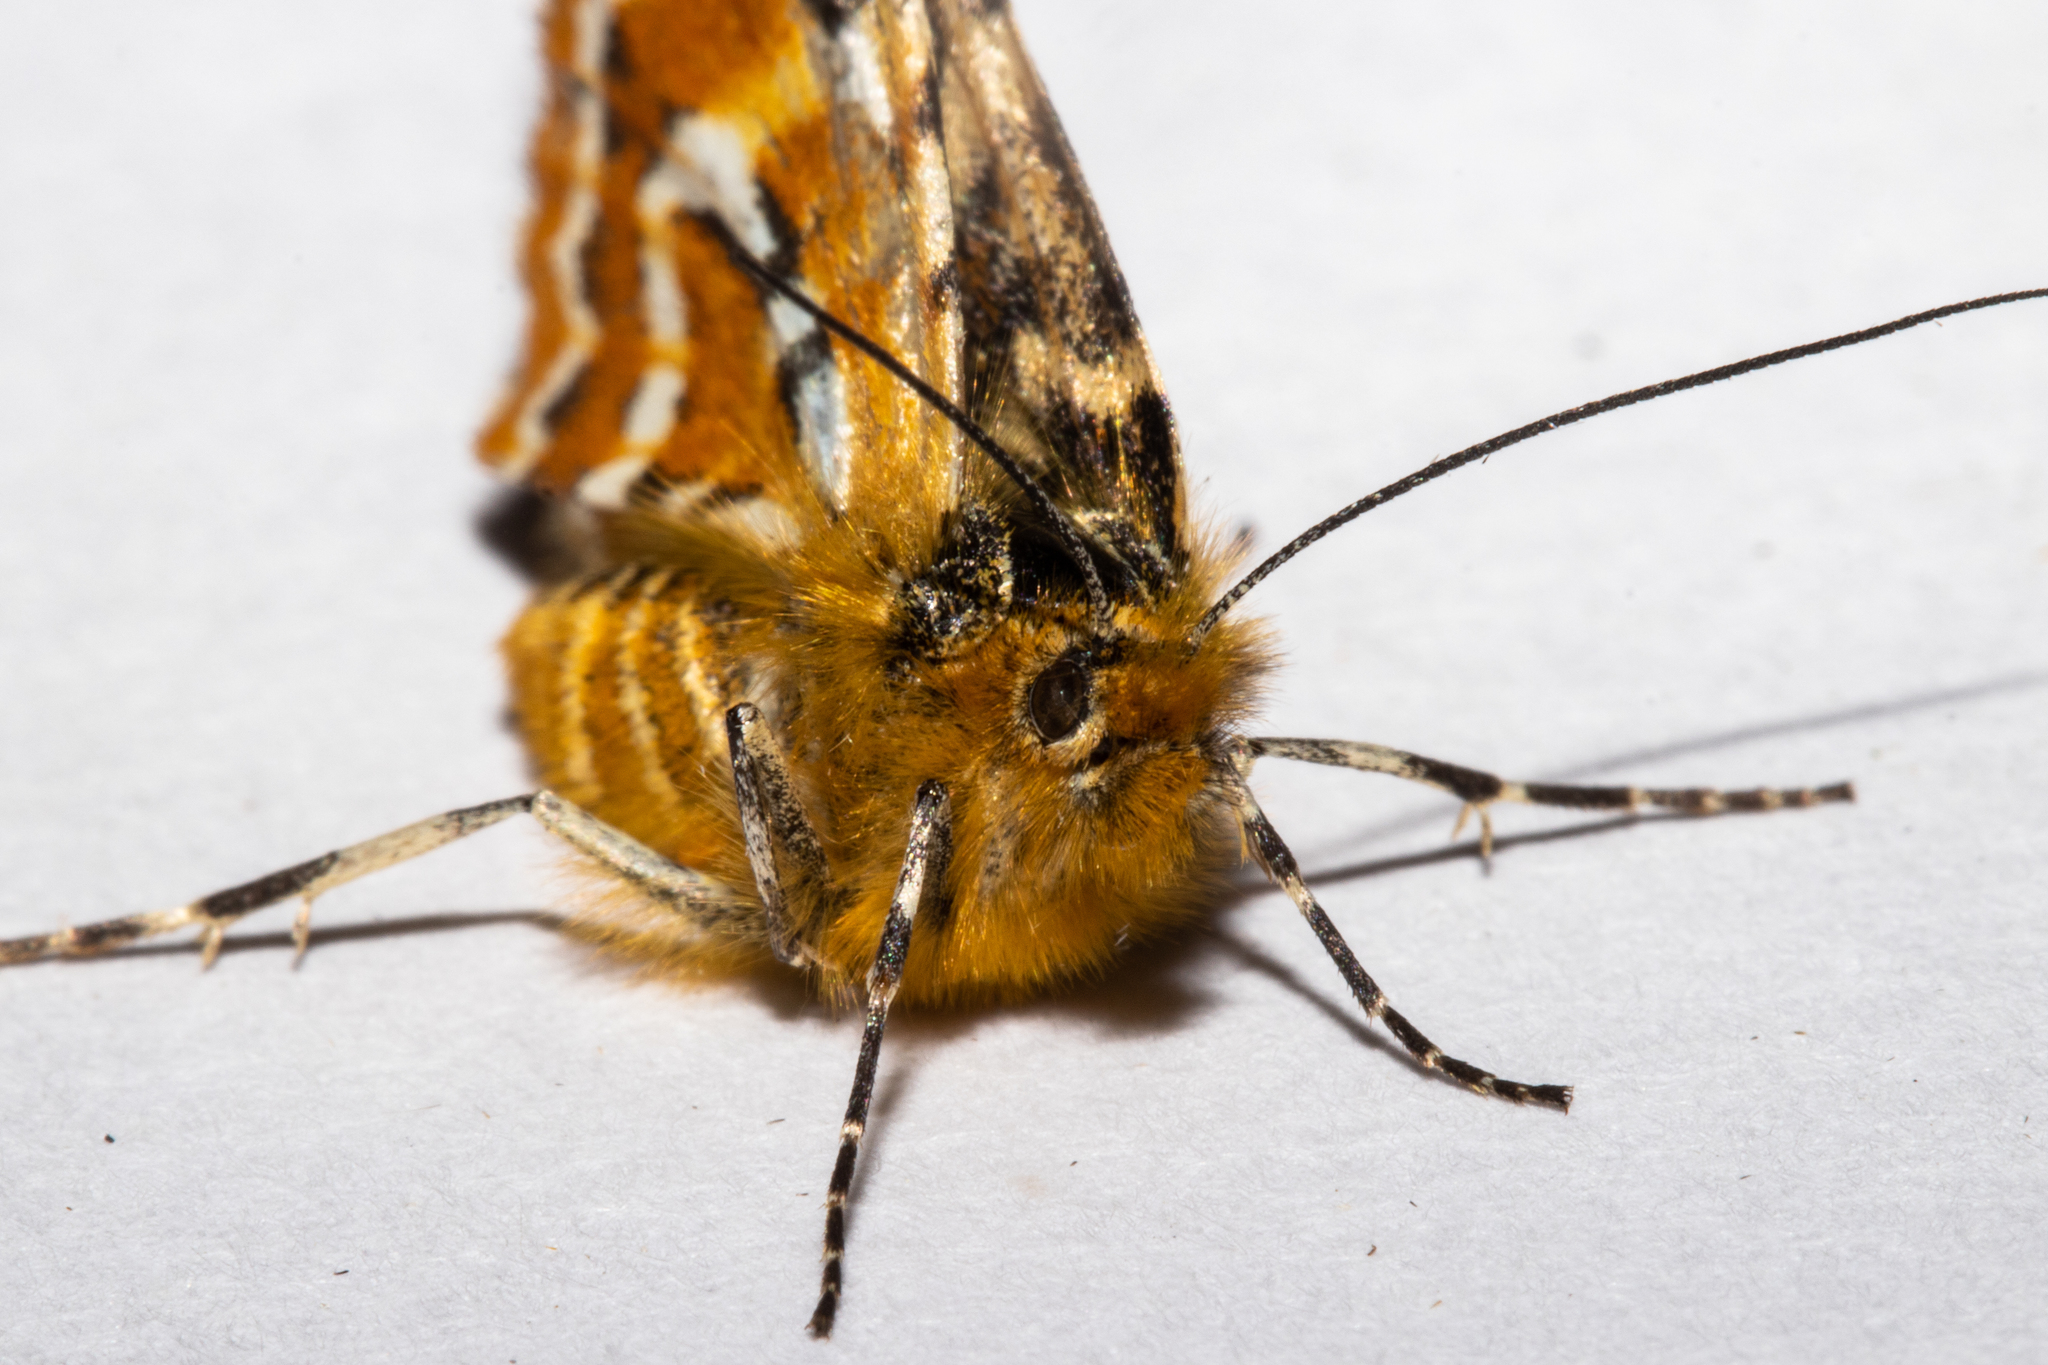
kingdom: Animalia
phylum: Arthropoda
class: Insecta
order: Lepidoptera
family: Geometridae
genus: Dasyuris
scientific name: Dasyuris callicrena
